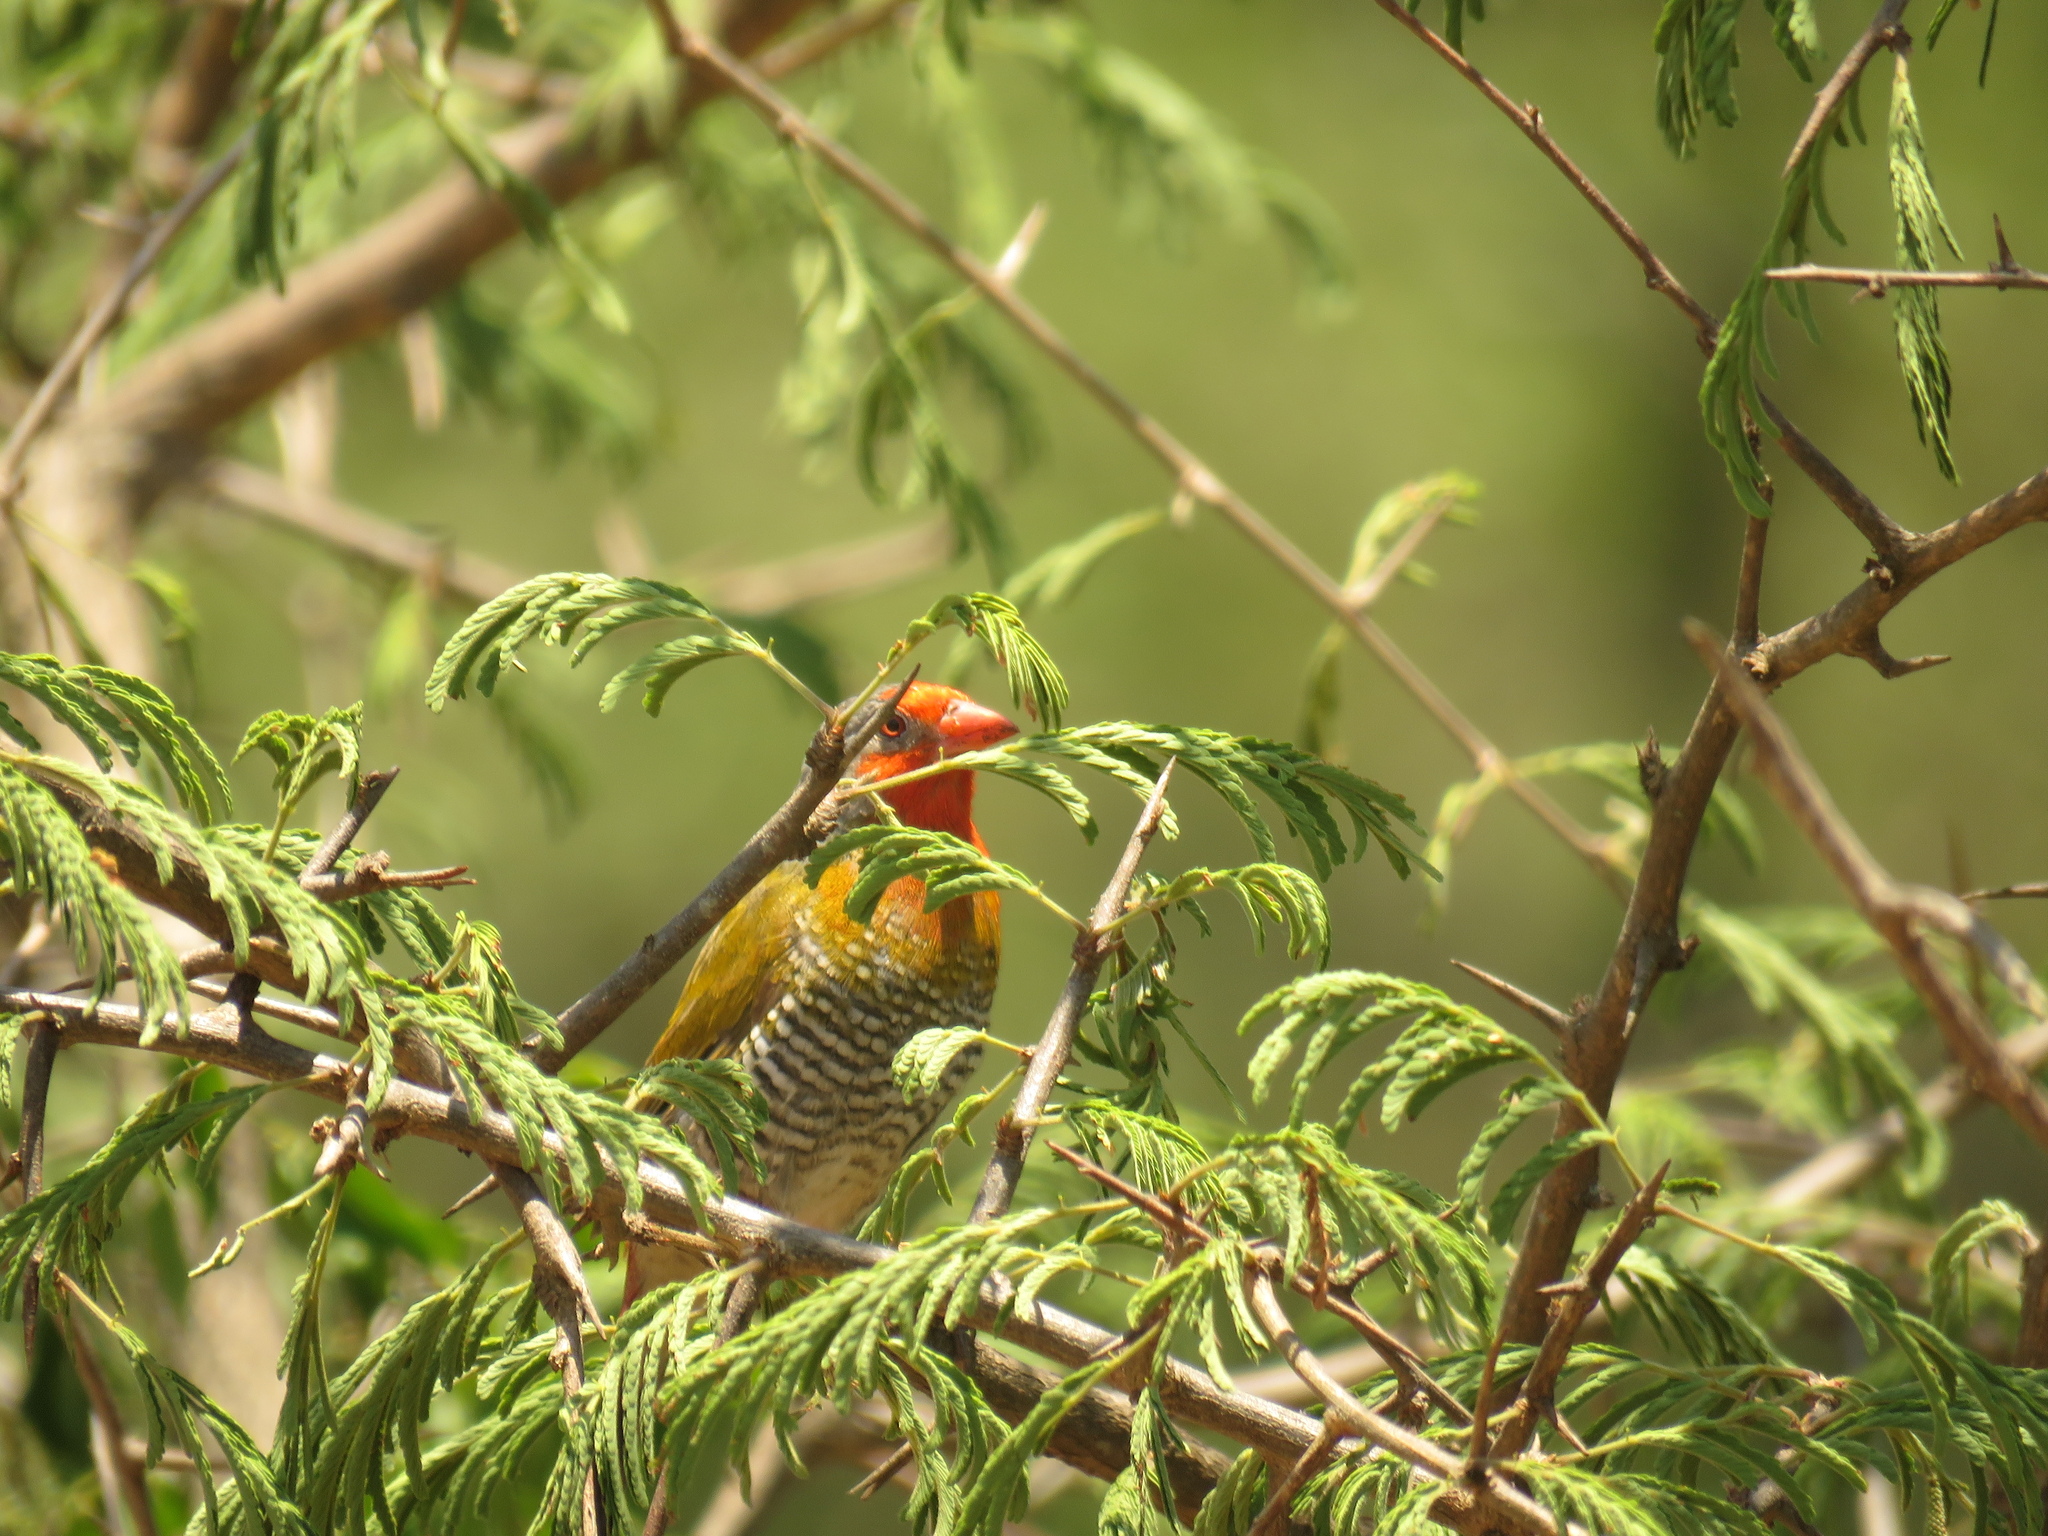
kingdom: Animalia
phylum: Chordata
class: Aves
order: Passeriformes
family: Estrildidae
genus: Pytilia
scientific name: Pytilia melba
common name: Green-winged pytilia
